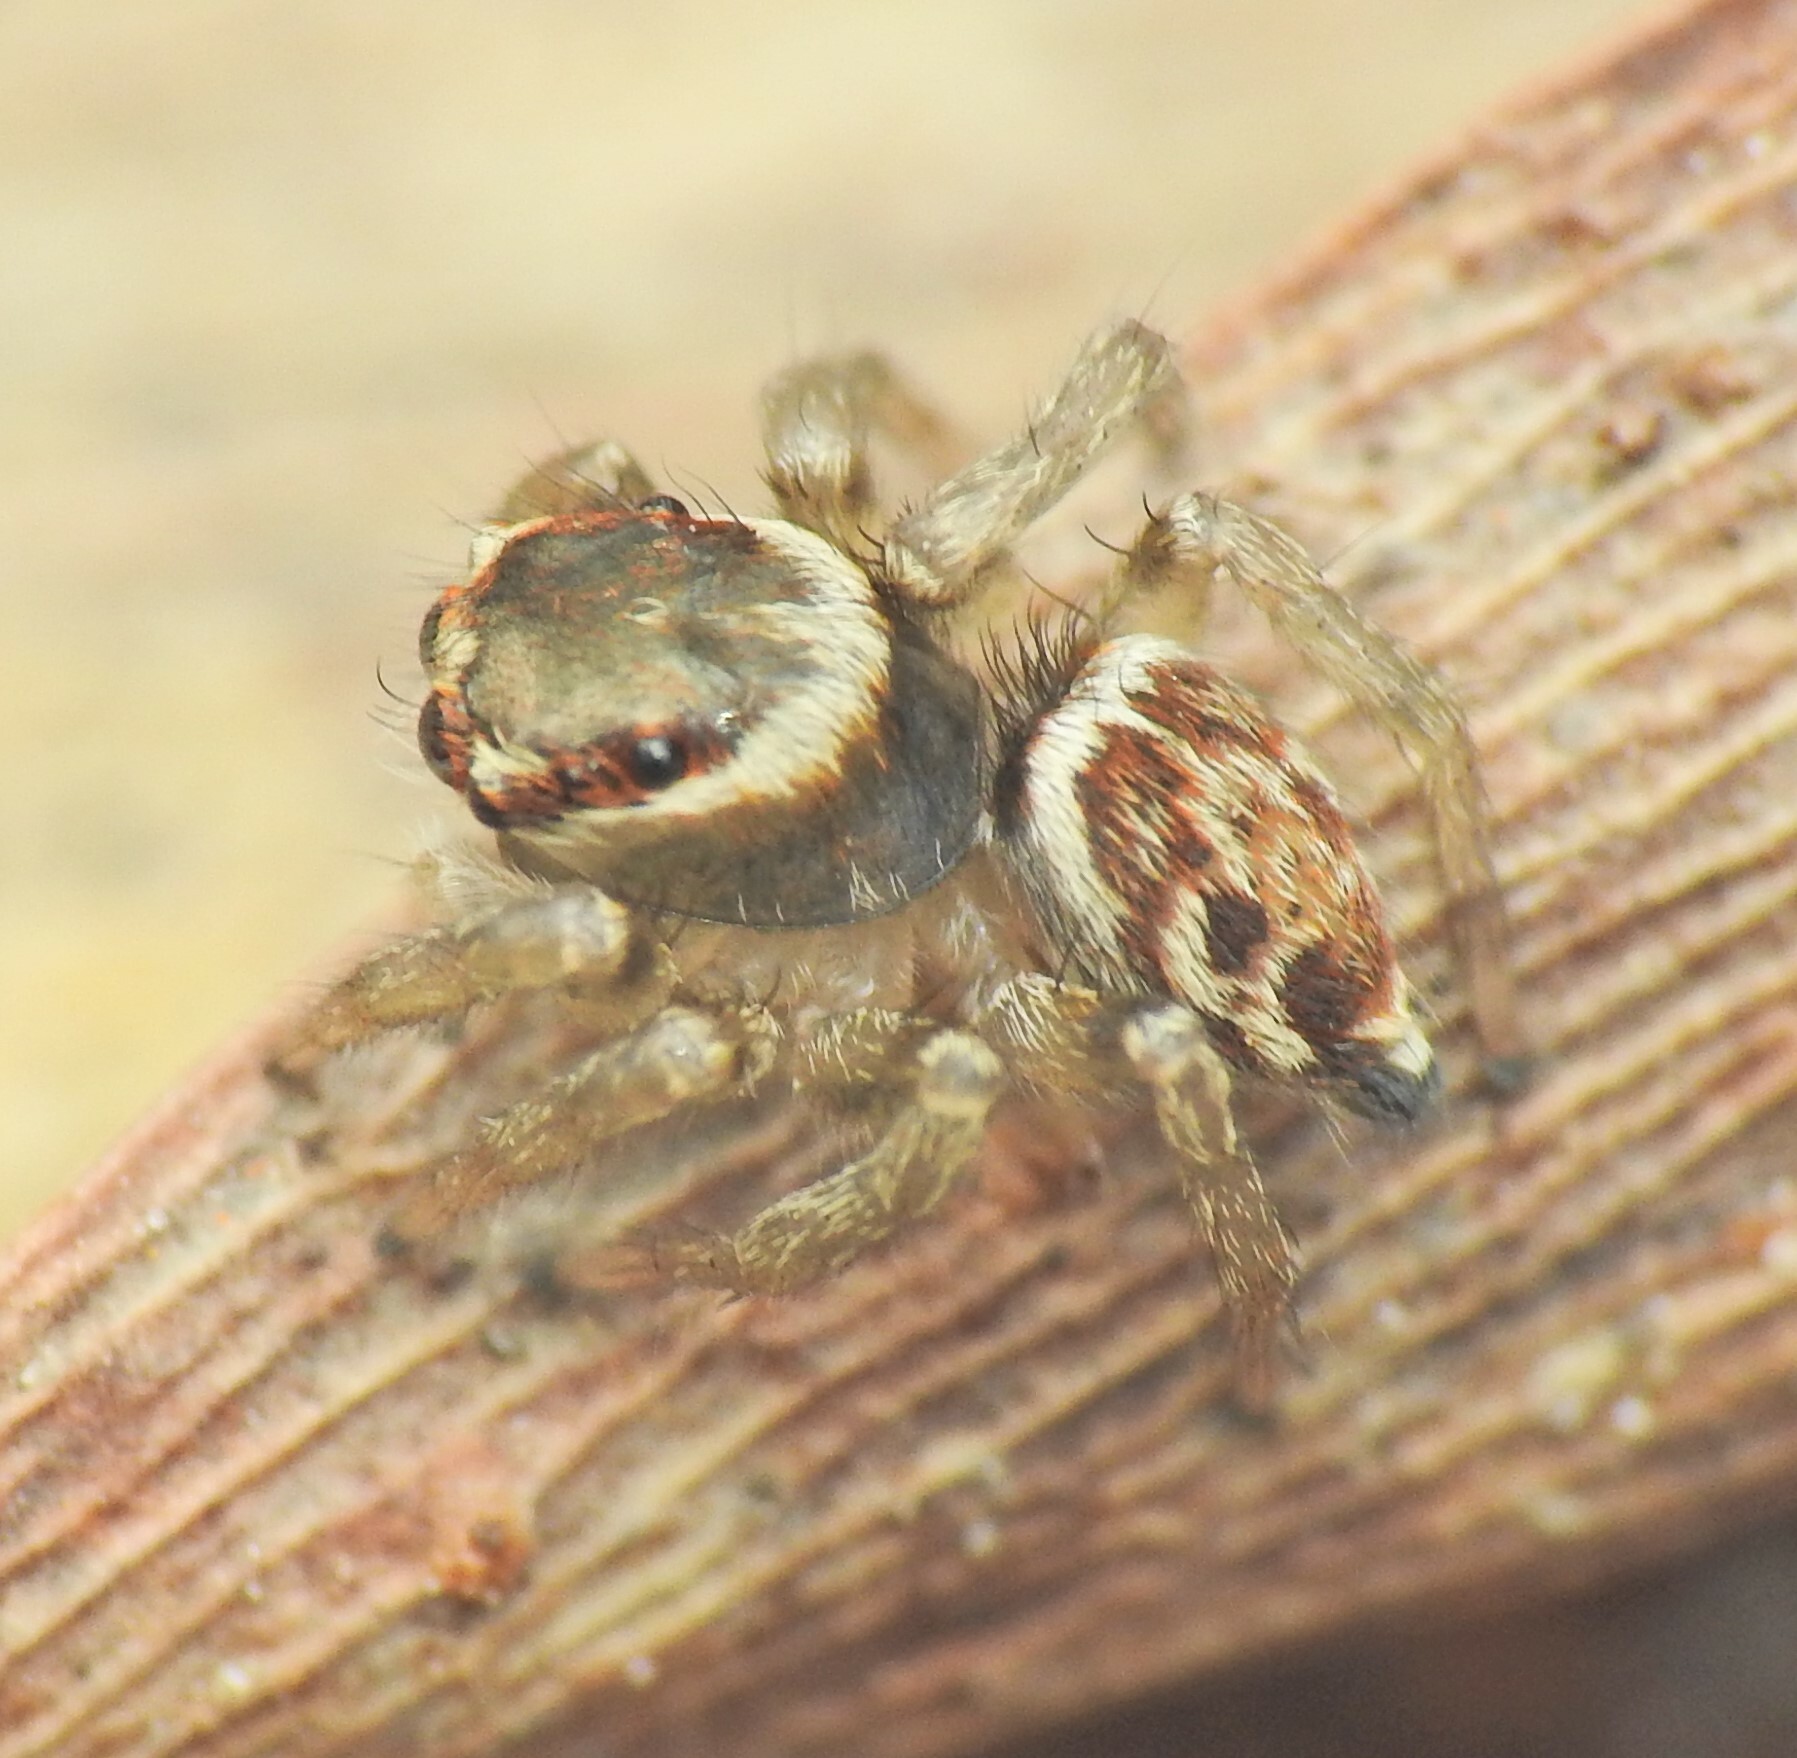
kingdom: Animalia
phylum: Arthropoda
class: Arachnida
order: Araneae
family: Salticidae
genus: Maratus
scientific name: Maratus griseus
